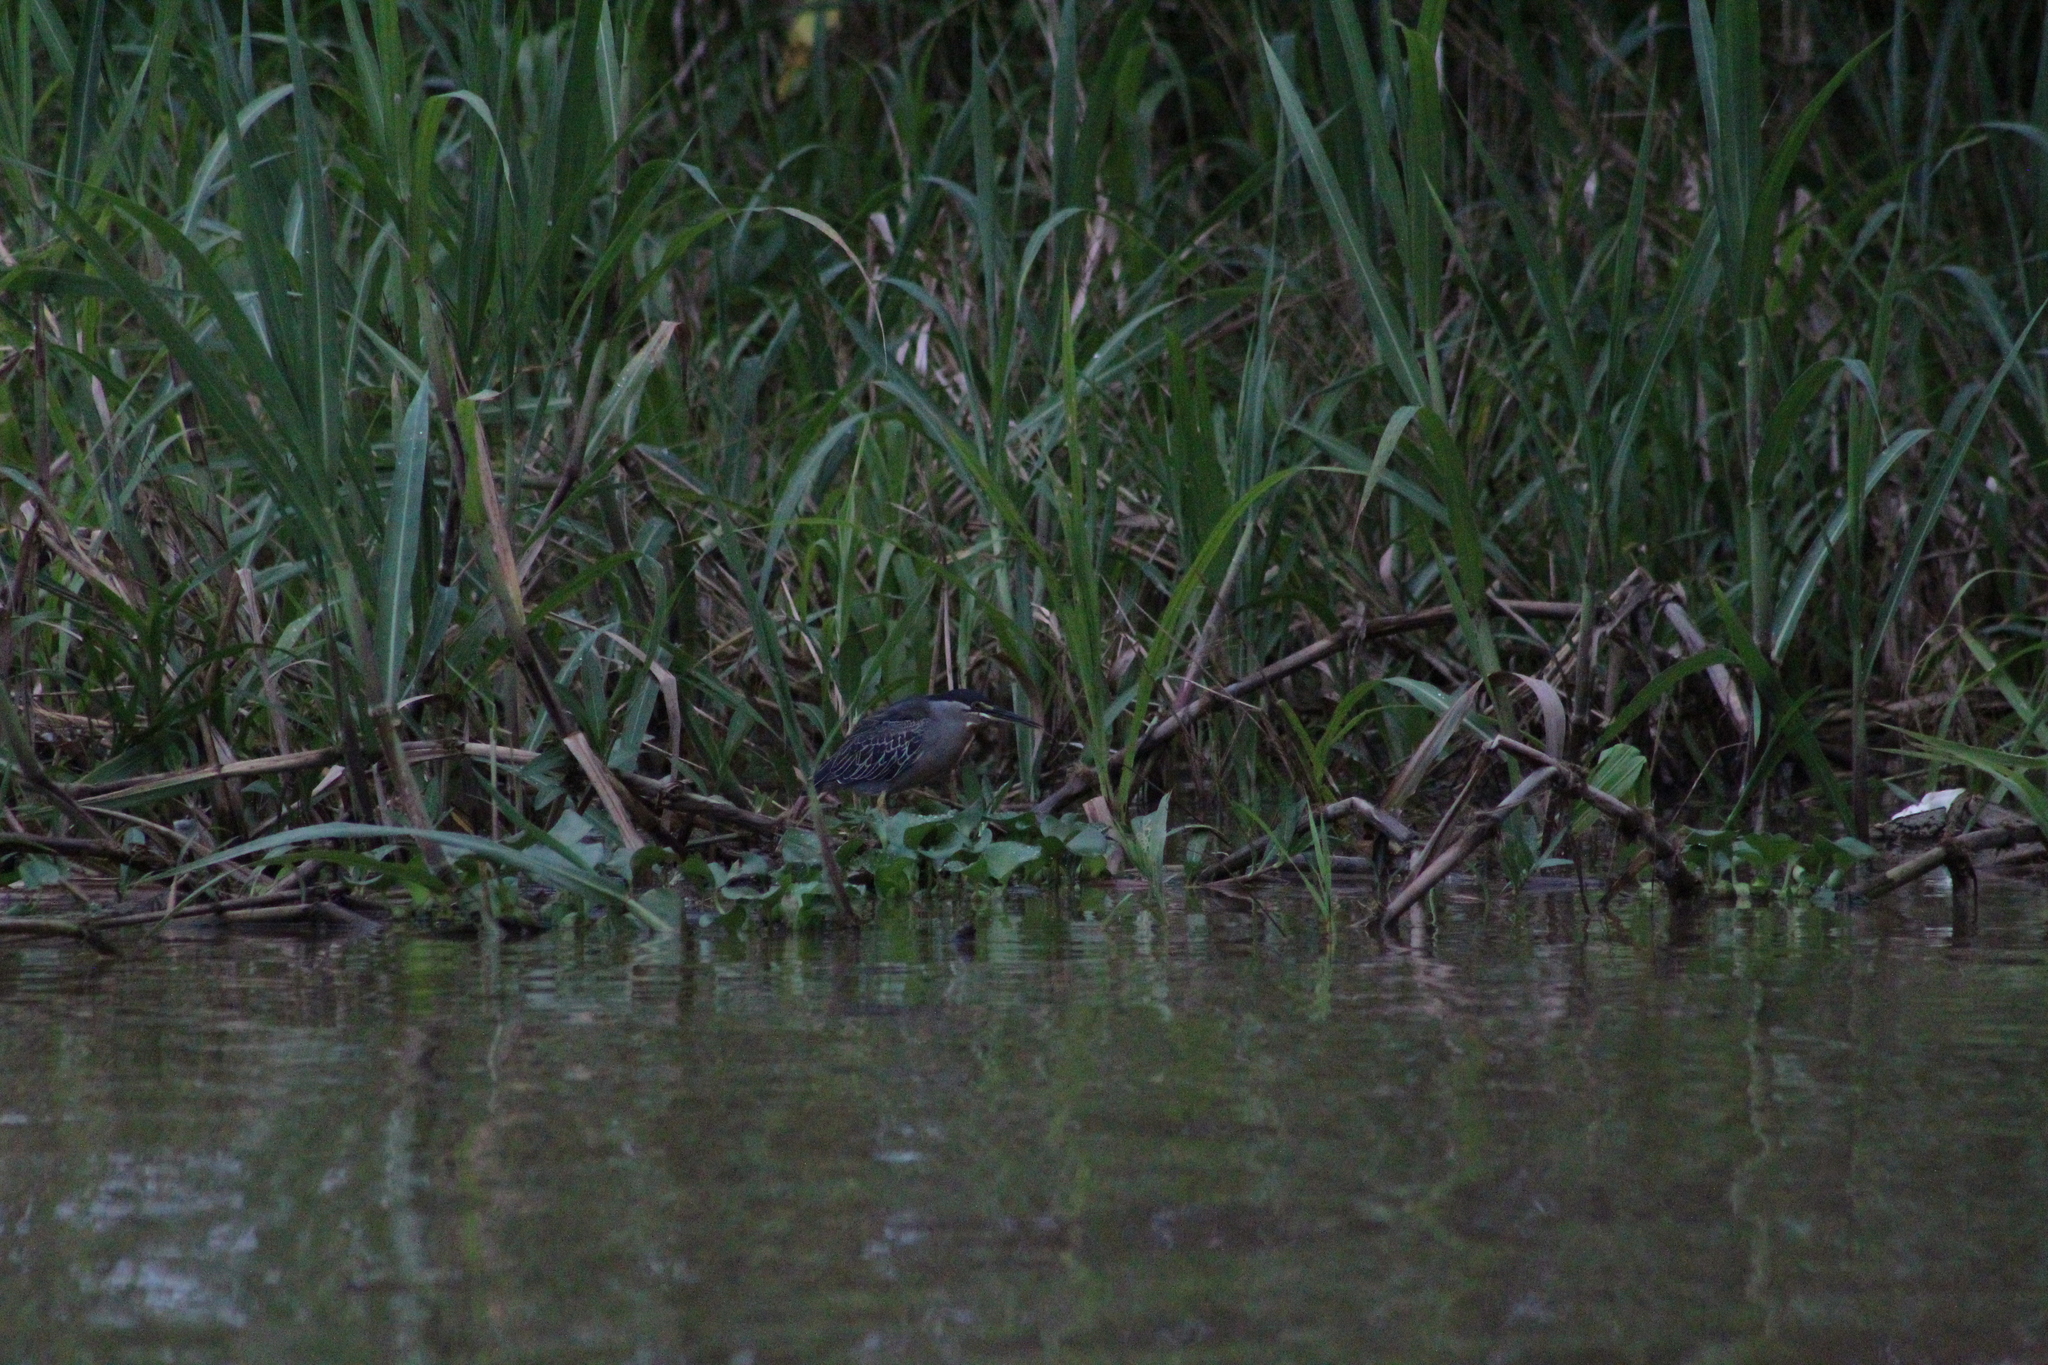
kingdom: Animalia
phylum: Chordata
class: Aves
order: Pelecaniformes
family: Ardeidae
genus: Butorides
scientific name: Butorides striata
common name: Striated heron
